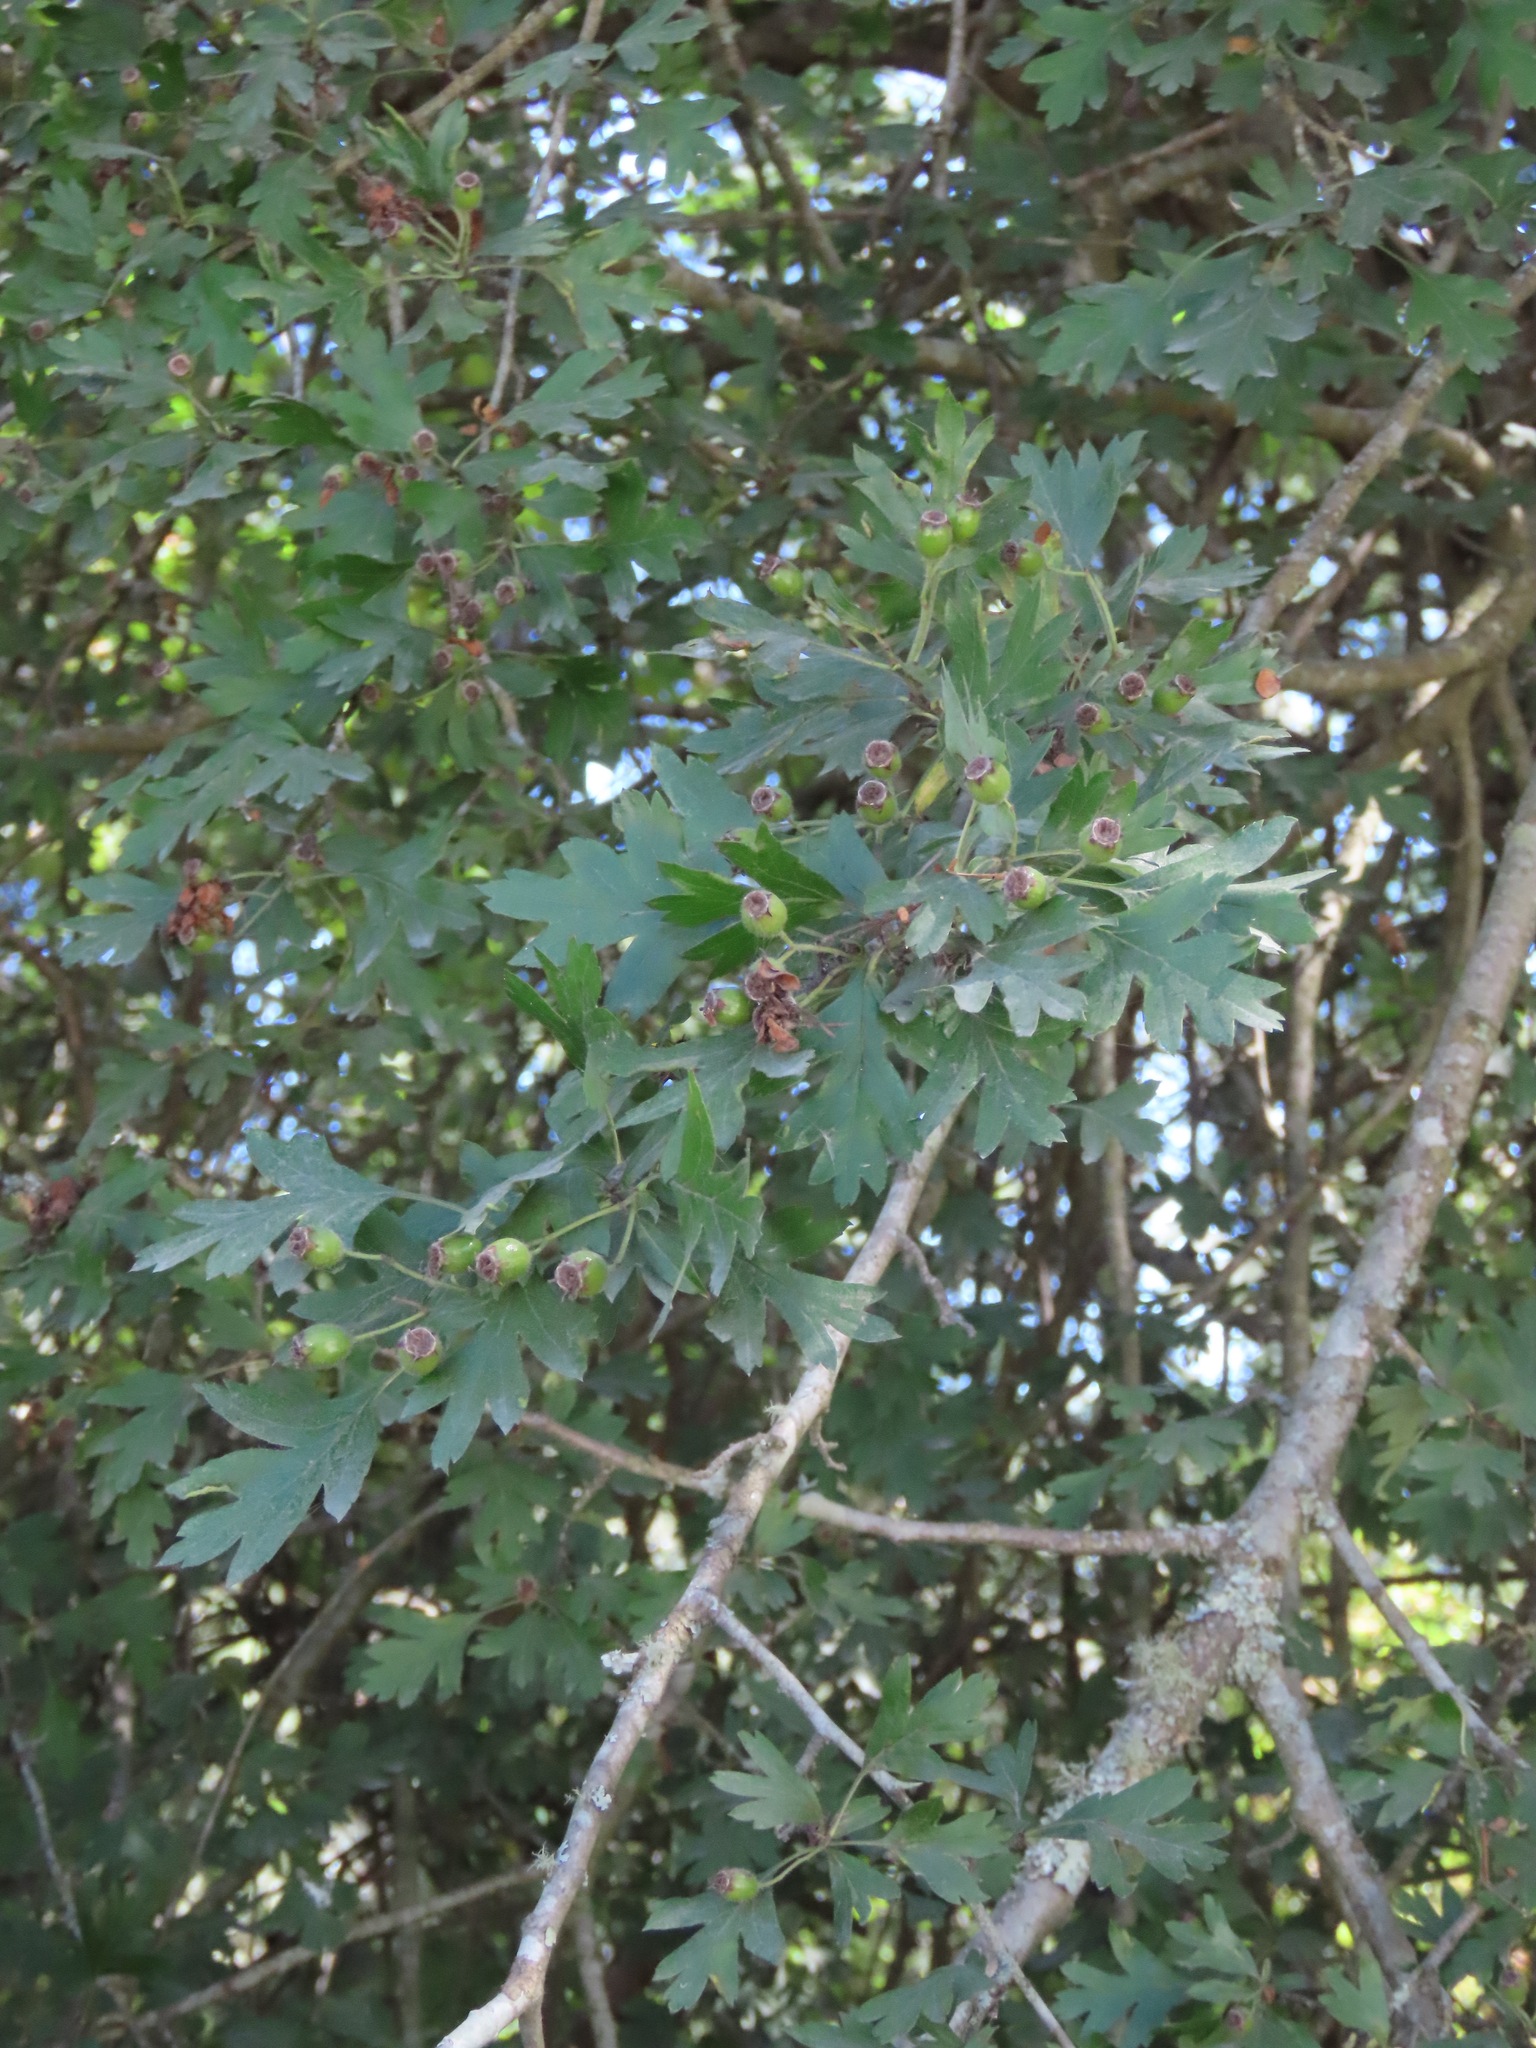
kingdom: Plantae
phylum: Tracheophyta
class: Magnoliopsida
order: Rosales
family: Rosaceae
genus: Crataegus
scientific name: Crataegus monogyna
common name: Hawthorn
